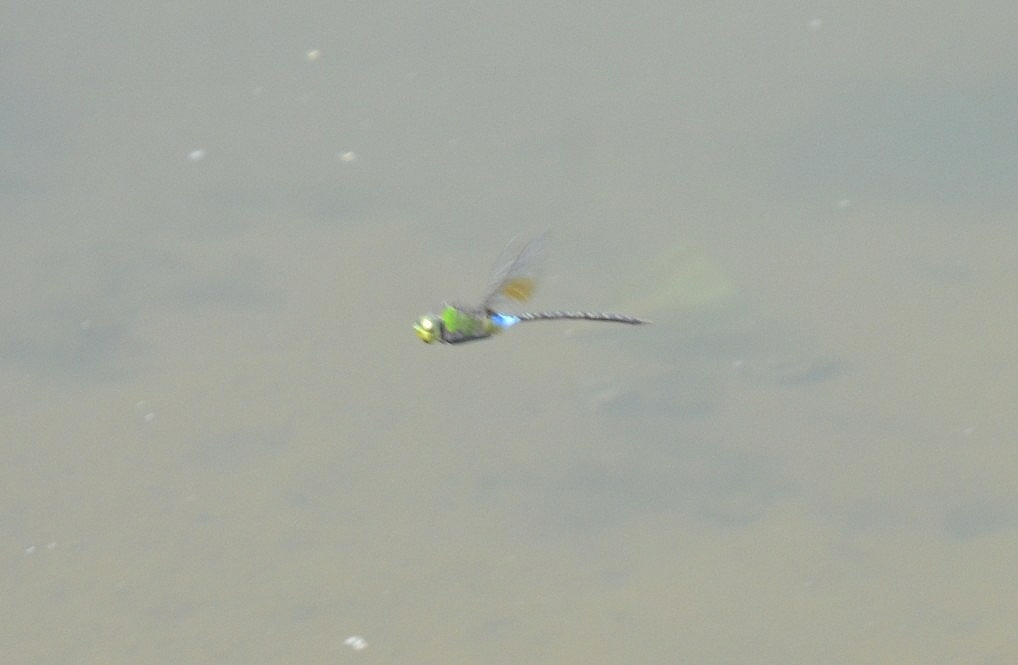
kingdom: Animalia
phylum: Arthropoda
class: Insecta
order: Odonata
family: Aeshnidae
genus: Anax
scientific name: Anax guttatus
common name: Emperor
